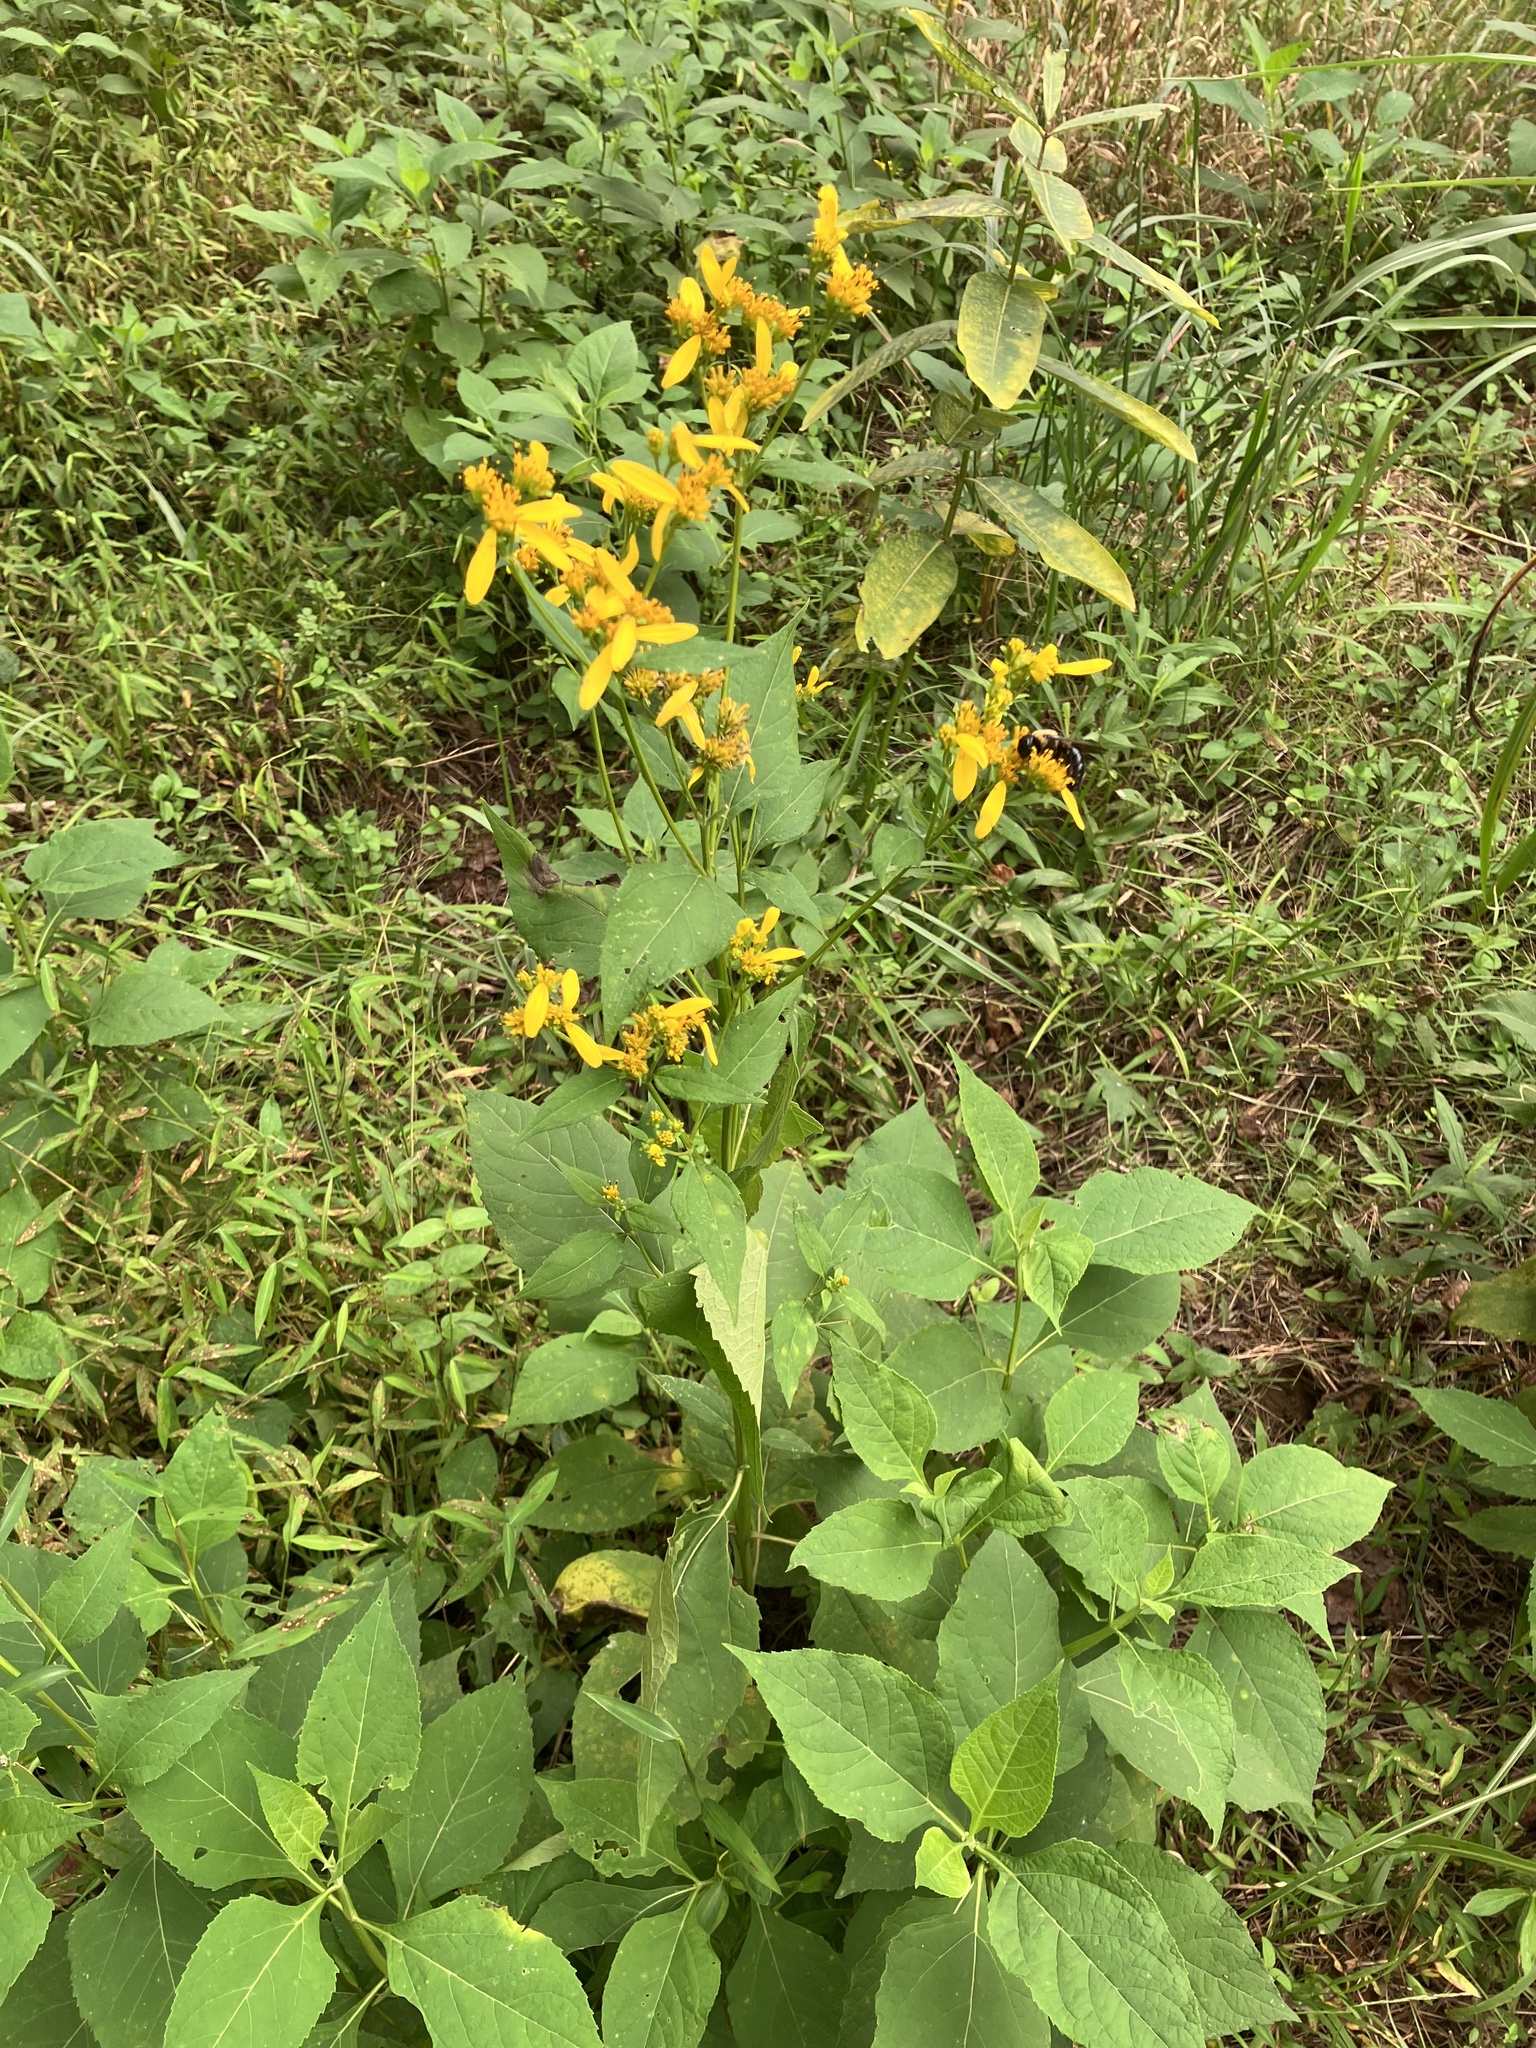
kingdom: Plantae
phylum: Tracheophyta
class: Magnoliopsida
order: Asterales
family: Asteraceae
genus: Verbesina
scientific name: Verbesina occidentalis
